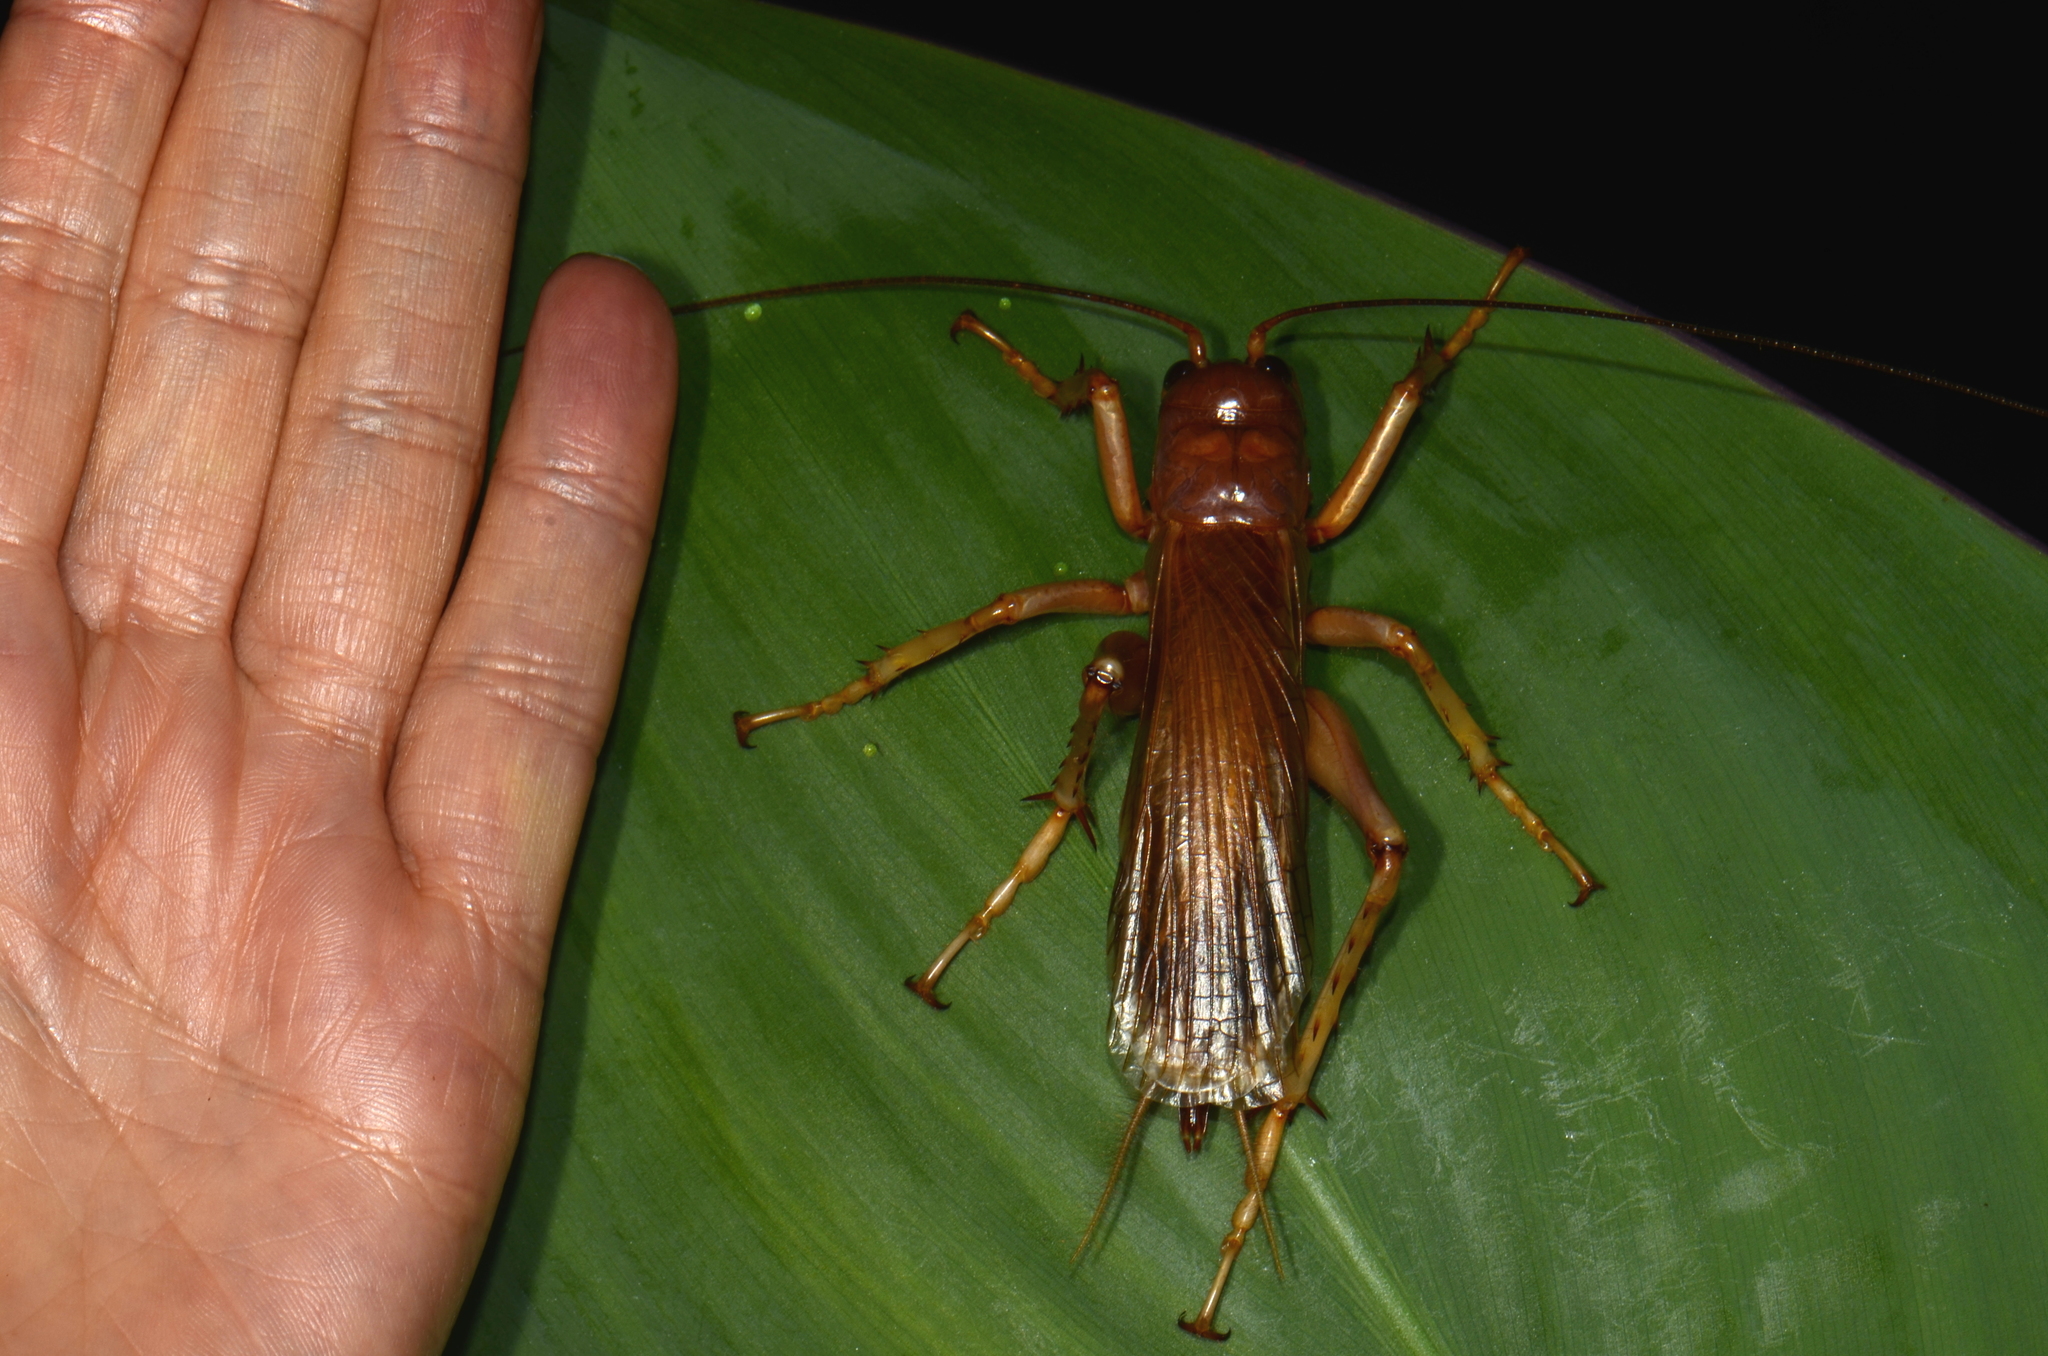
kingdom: Animalia
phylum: Arthropoda
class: Insecta
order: Orthoptera
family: Stenopelmatidae
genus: Sia
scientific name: Sia incisa
